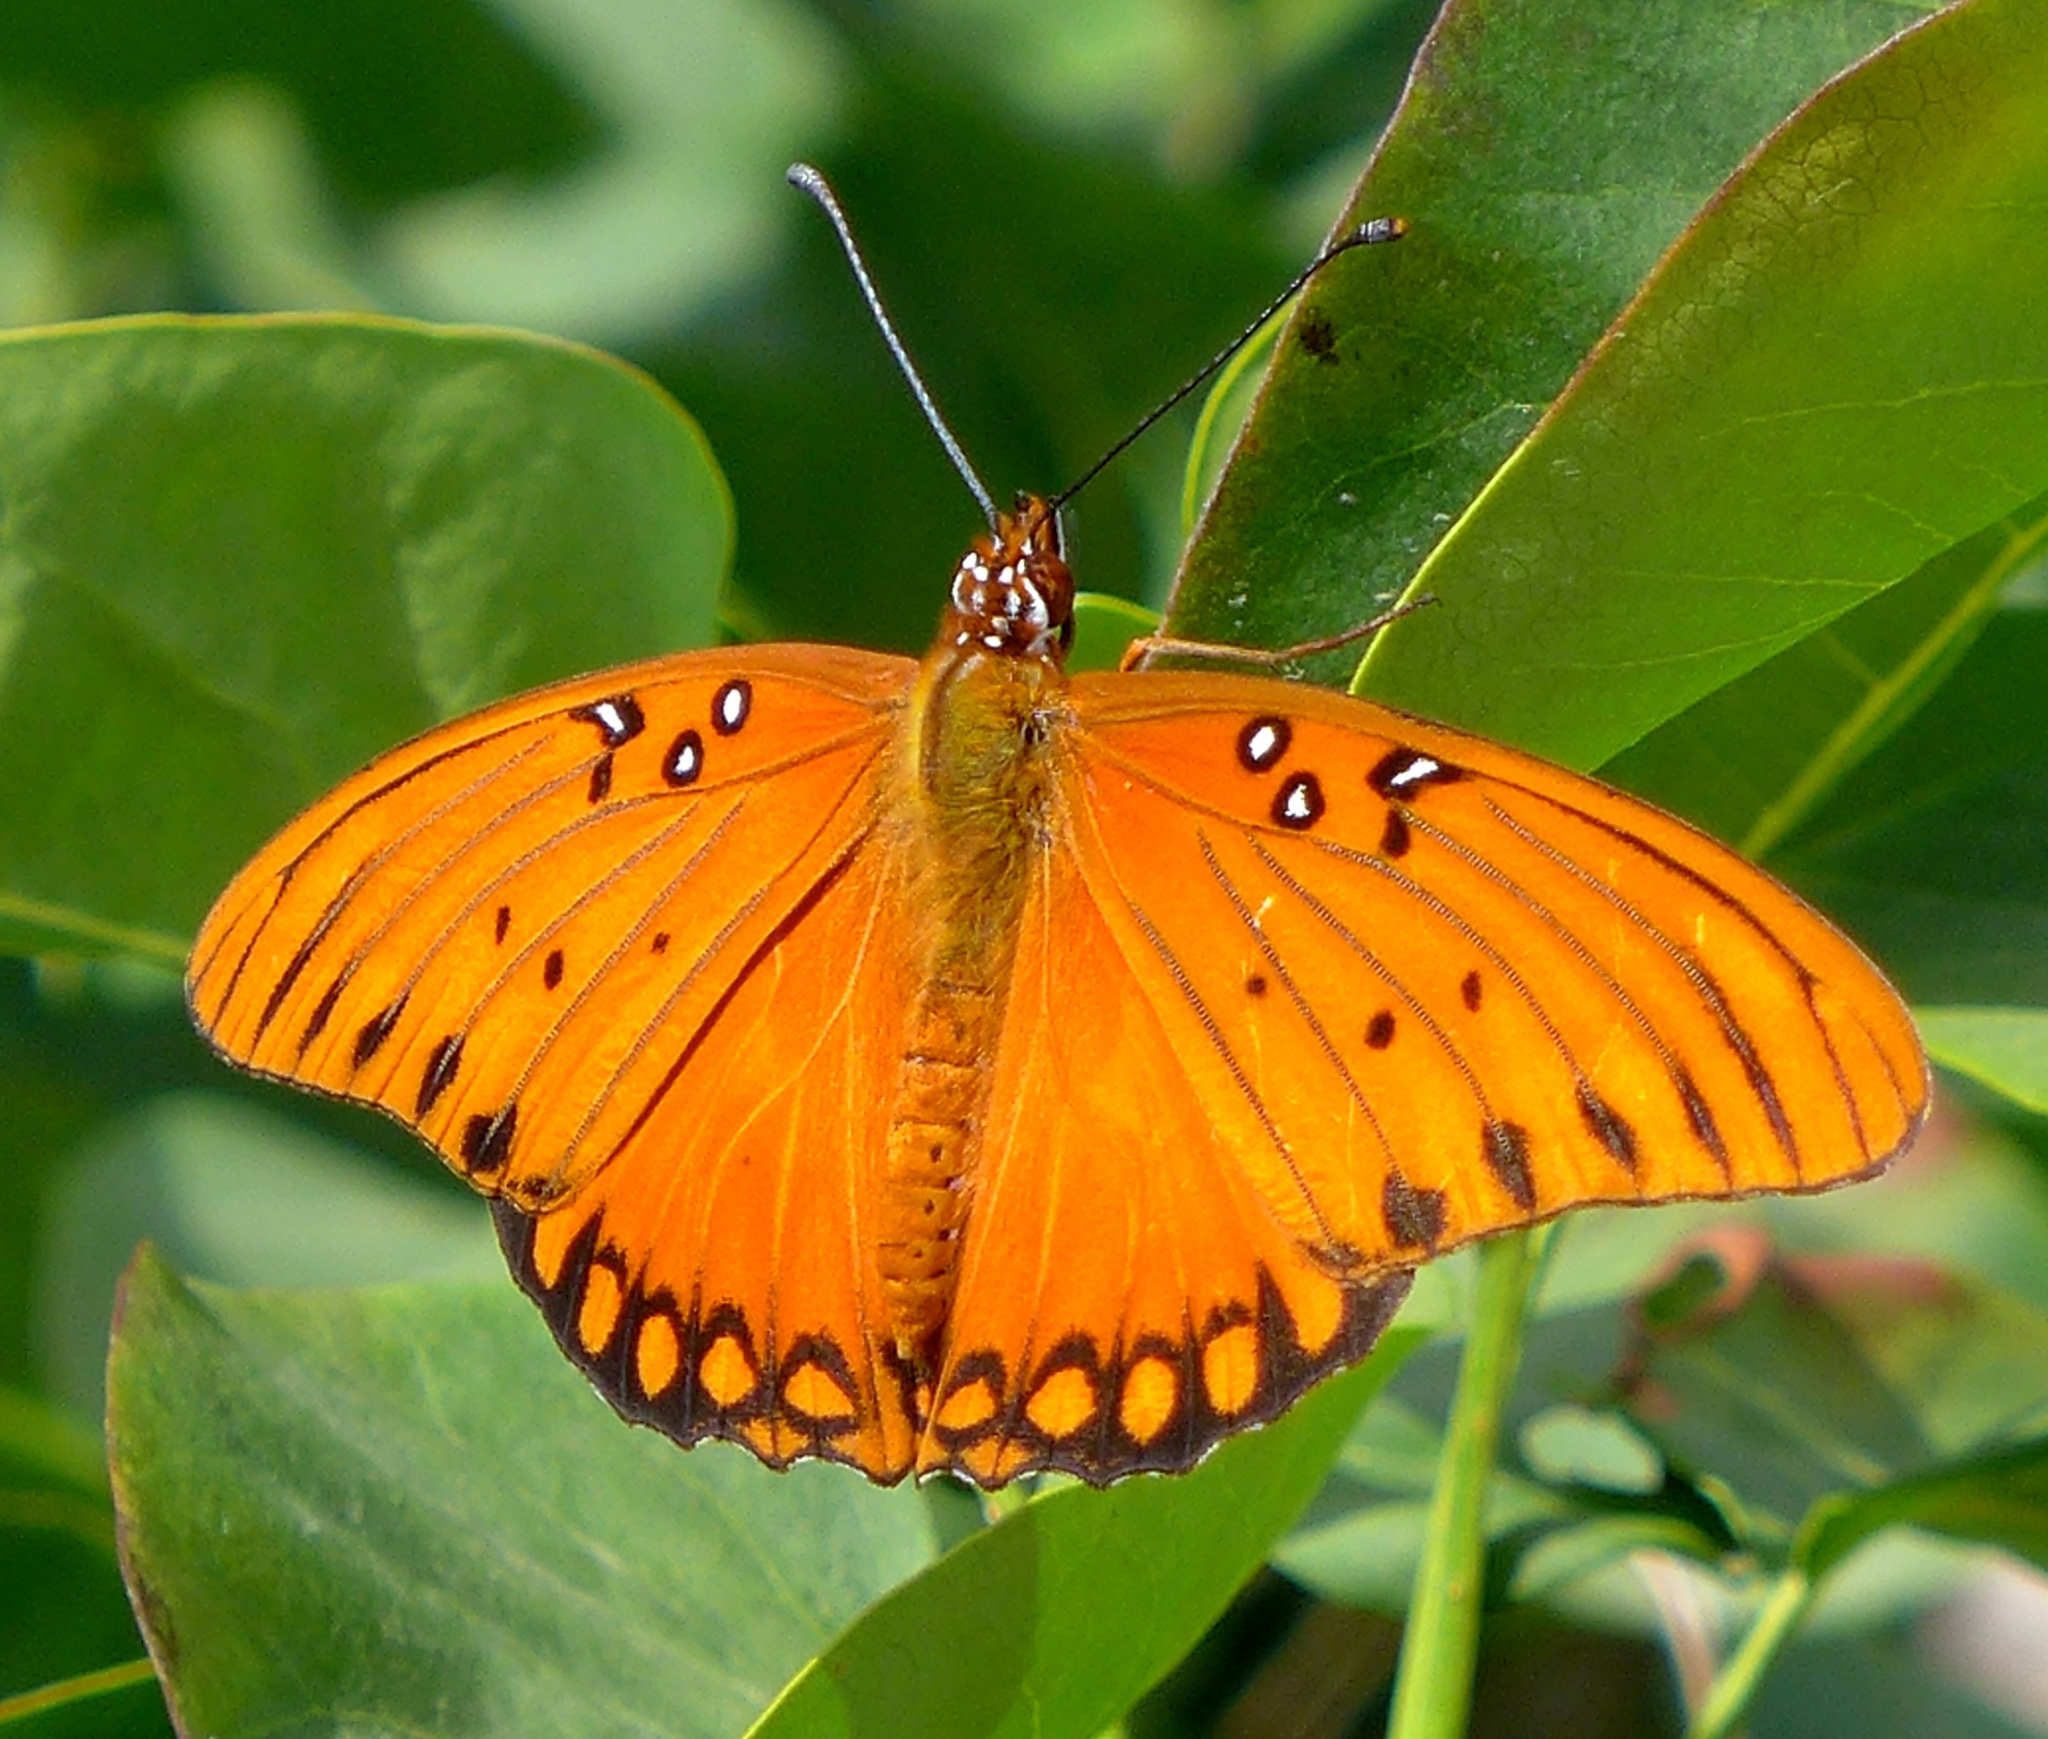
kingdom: Animalia
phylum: Arthropoda
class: Insecta
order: Lepidoptera
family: Nymphalidae
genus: Dione
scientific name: Dione vanillae
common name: Gulf fritillary
